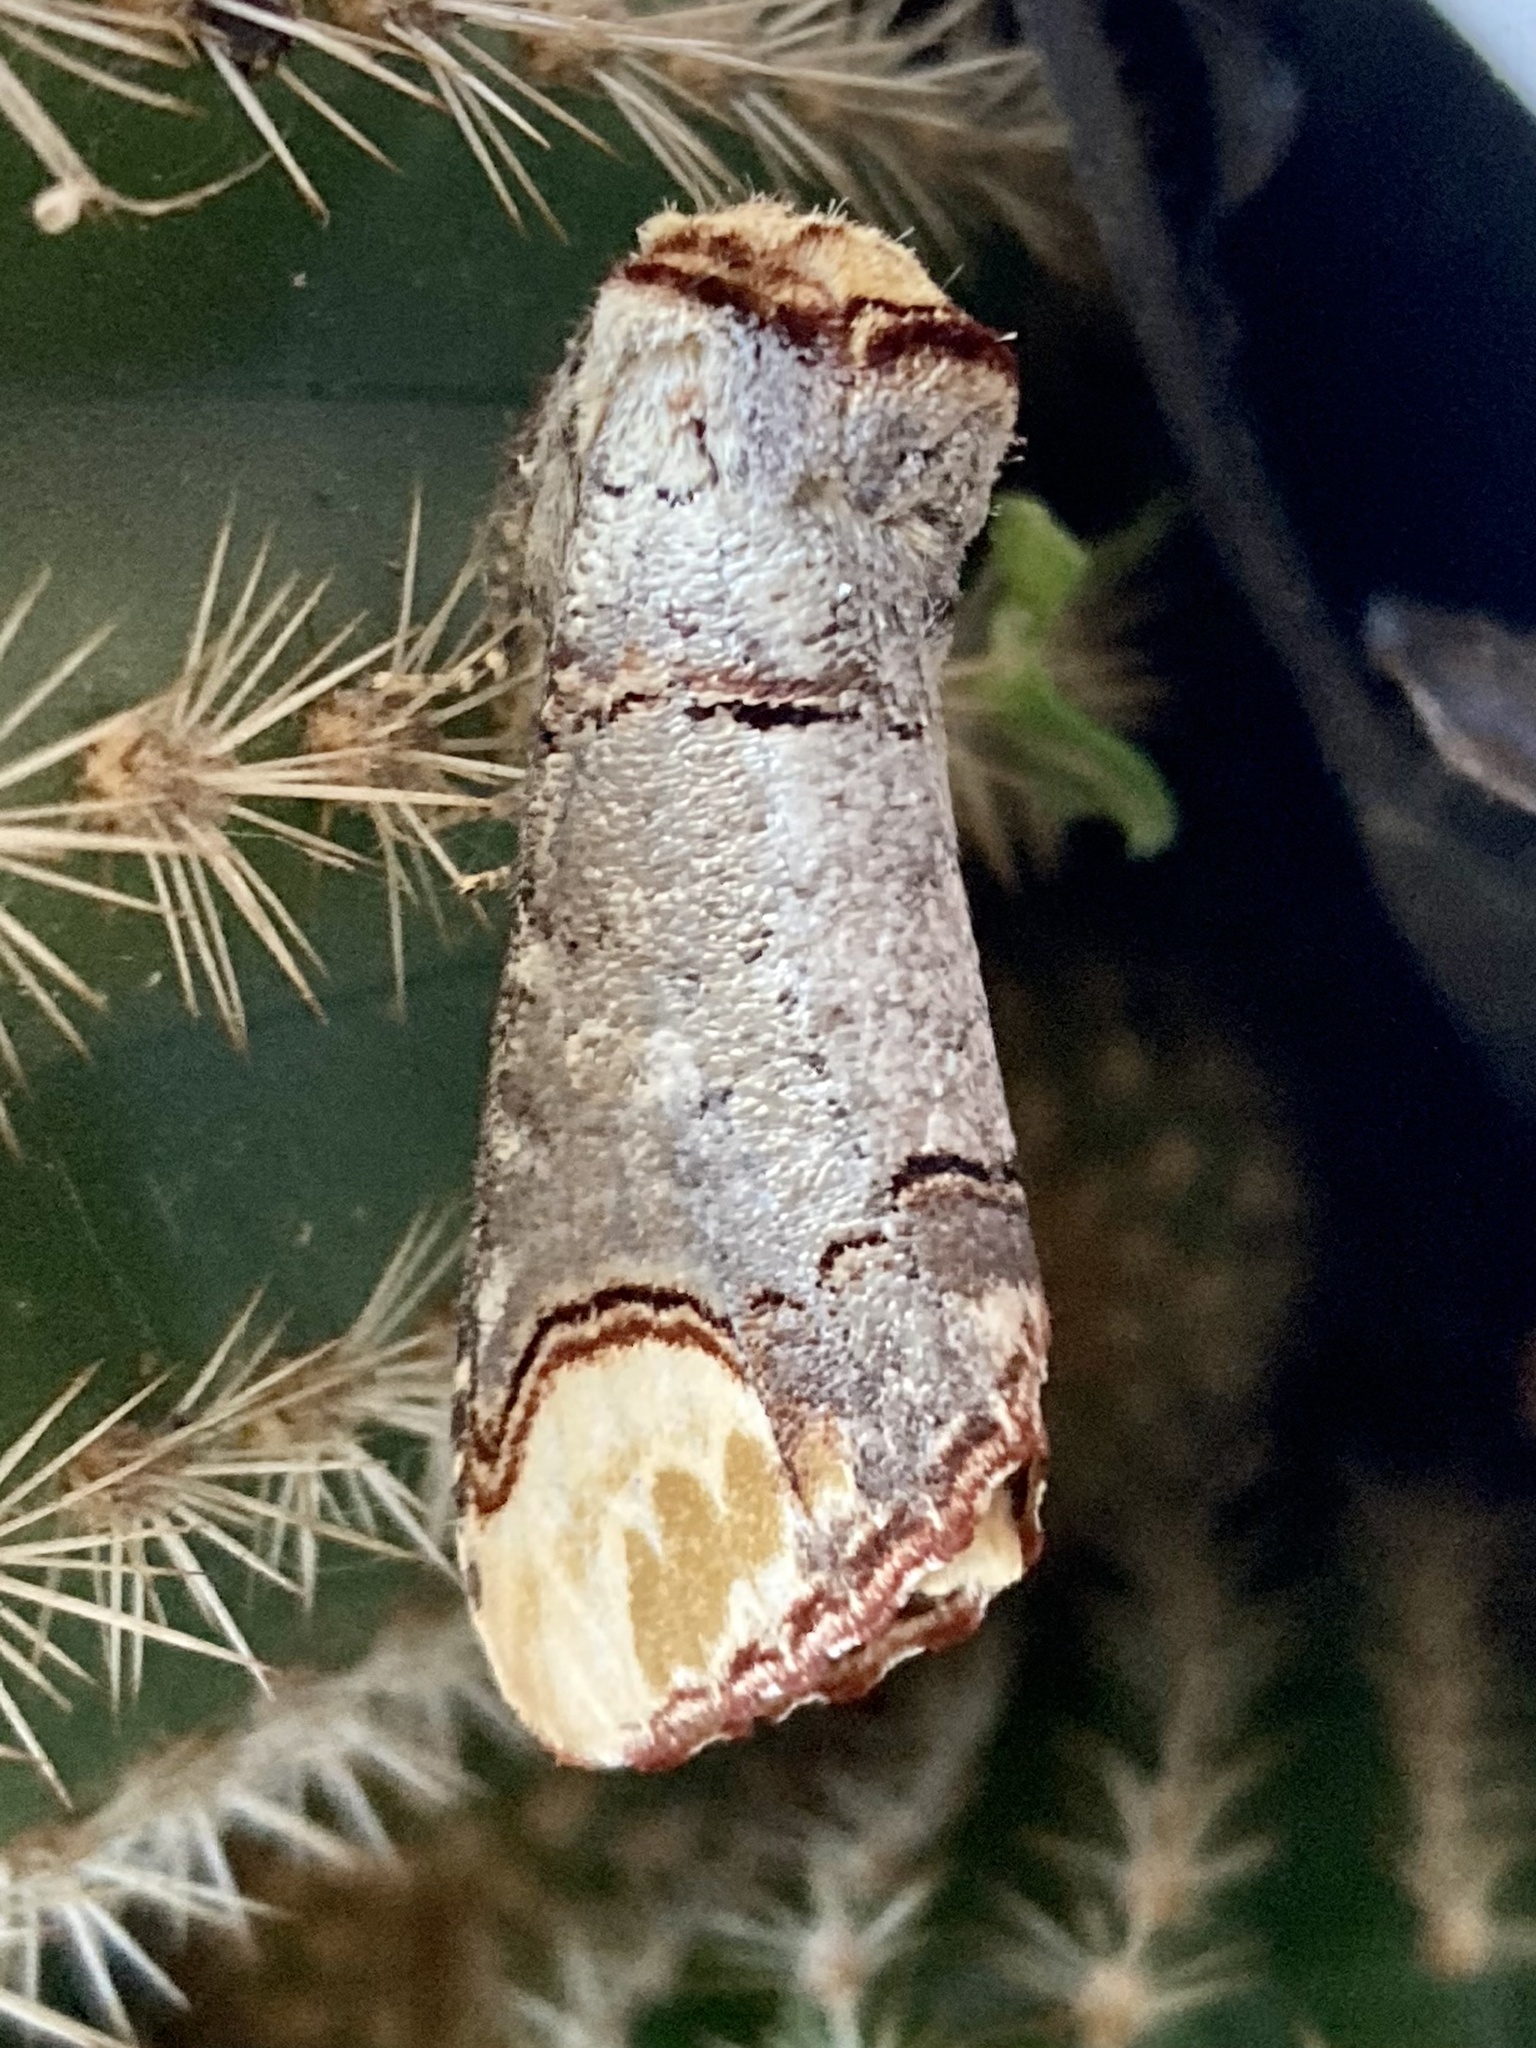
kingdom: Animalia
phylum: Arthropoda
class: Insecta
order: Lepidoptera
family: Notodontidae
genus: Phalera
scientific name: Phalera bucephala
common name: Buff-tip
